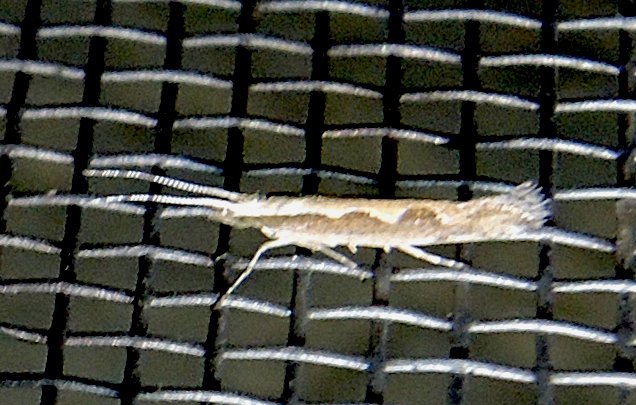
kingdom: Animalia
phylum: Arthropoda
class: Insecta
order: Lepidoptera
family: Plutellidae
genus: Plutella
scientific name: Plutella xylostella
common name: Diamond-back moth
